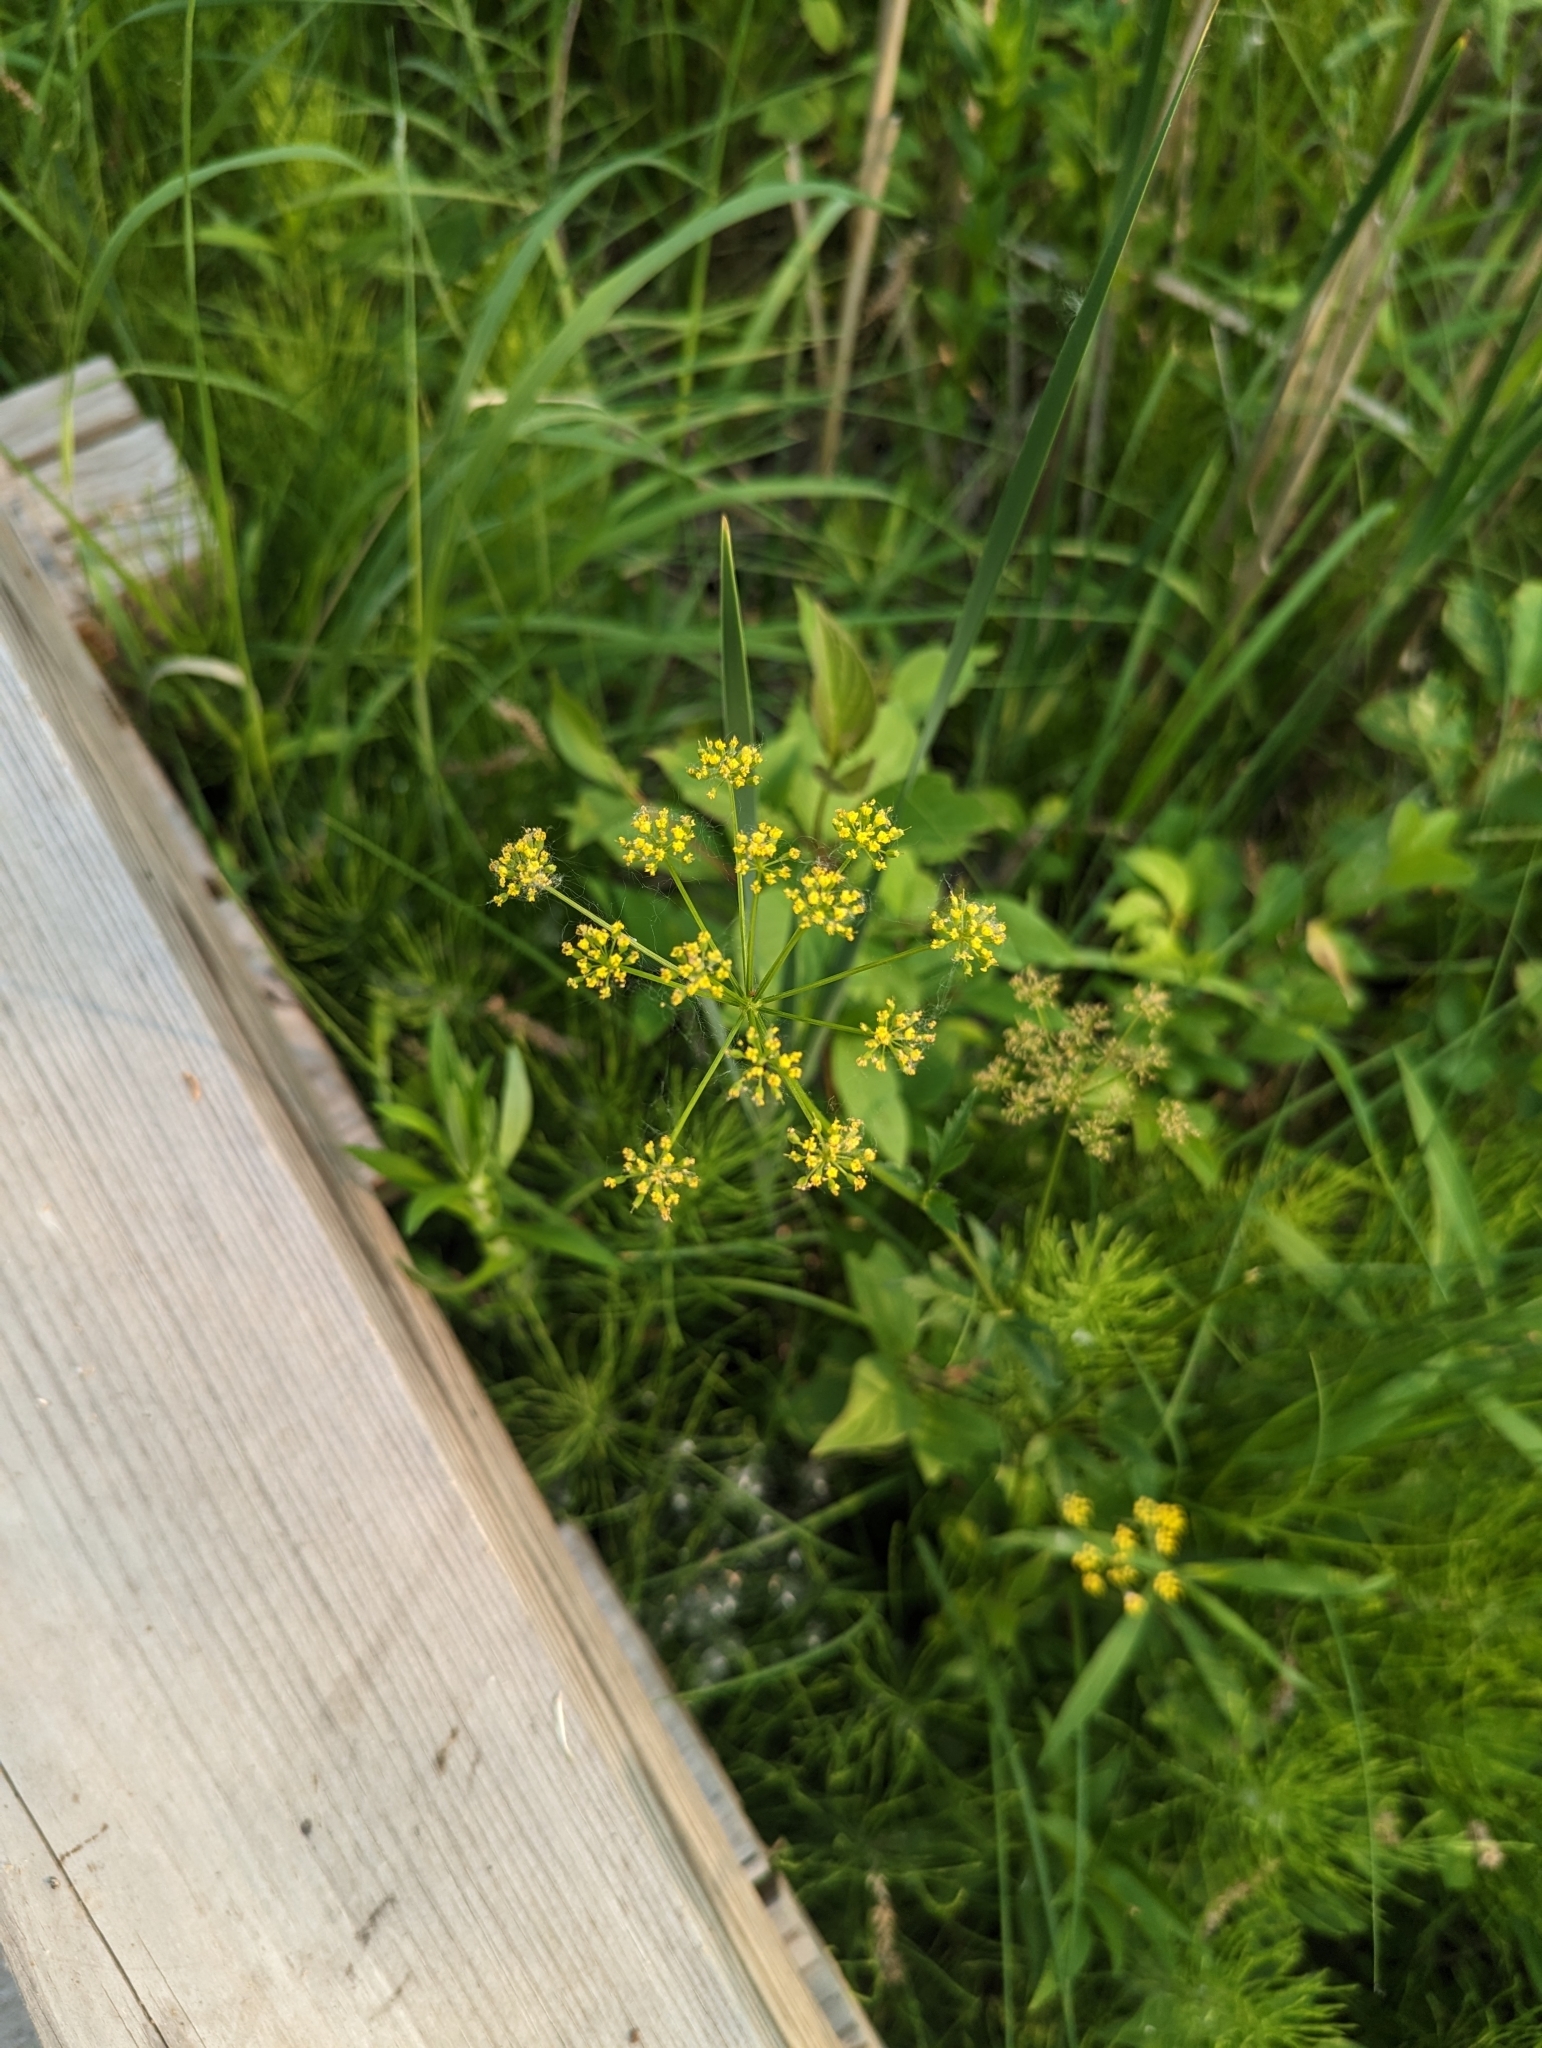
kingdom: Plantae
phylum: Tracheophyta
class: Magnoliopsida
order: Apiales
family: Apiaceae
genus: Zizia
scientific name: Zizia aurea
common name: Golden alexanders
